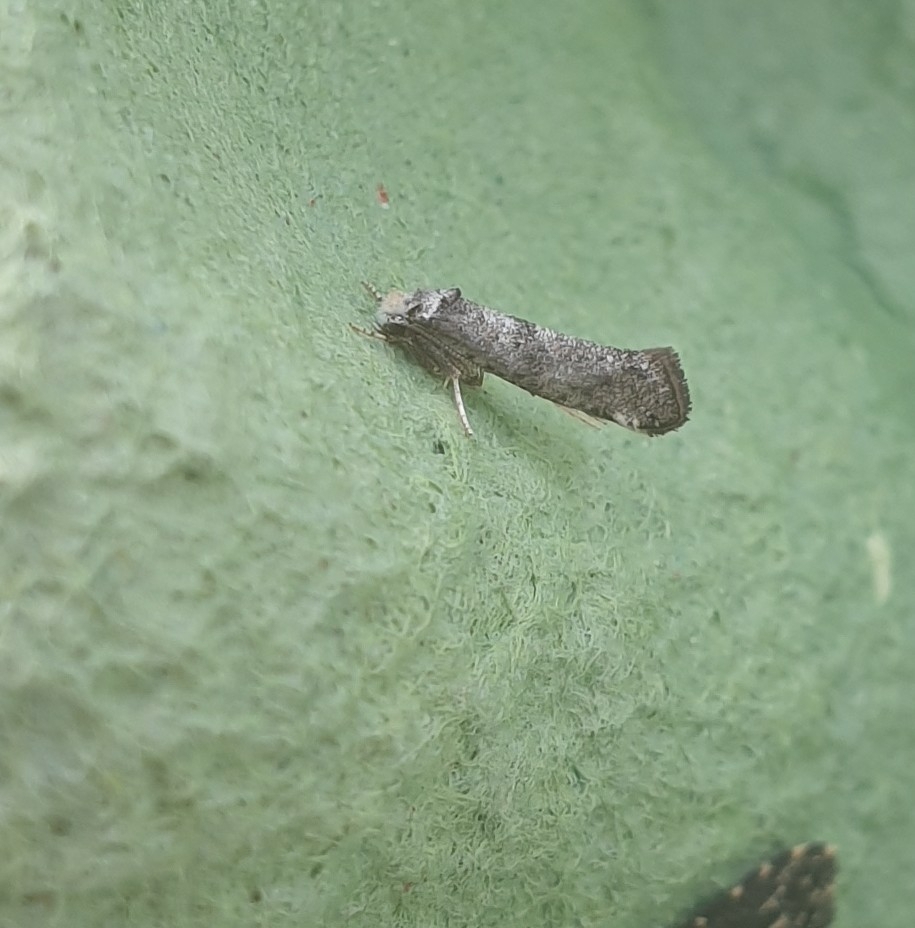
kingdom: Animalia
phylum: Arthropoda
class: Insecta
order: Lepidoptera
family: Yponomeutidae
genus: Swammerdamia
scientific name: Swammerdamia
